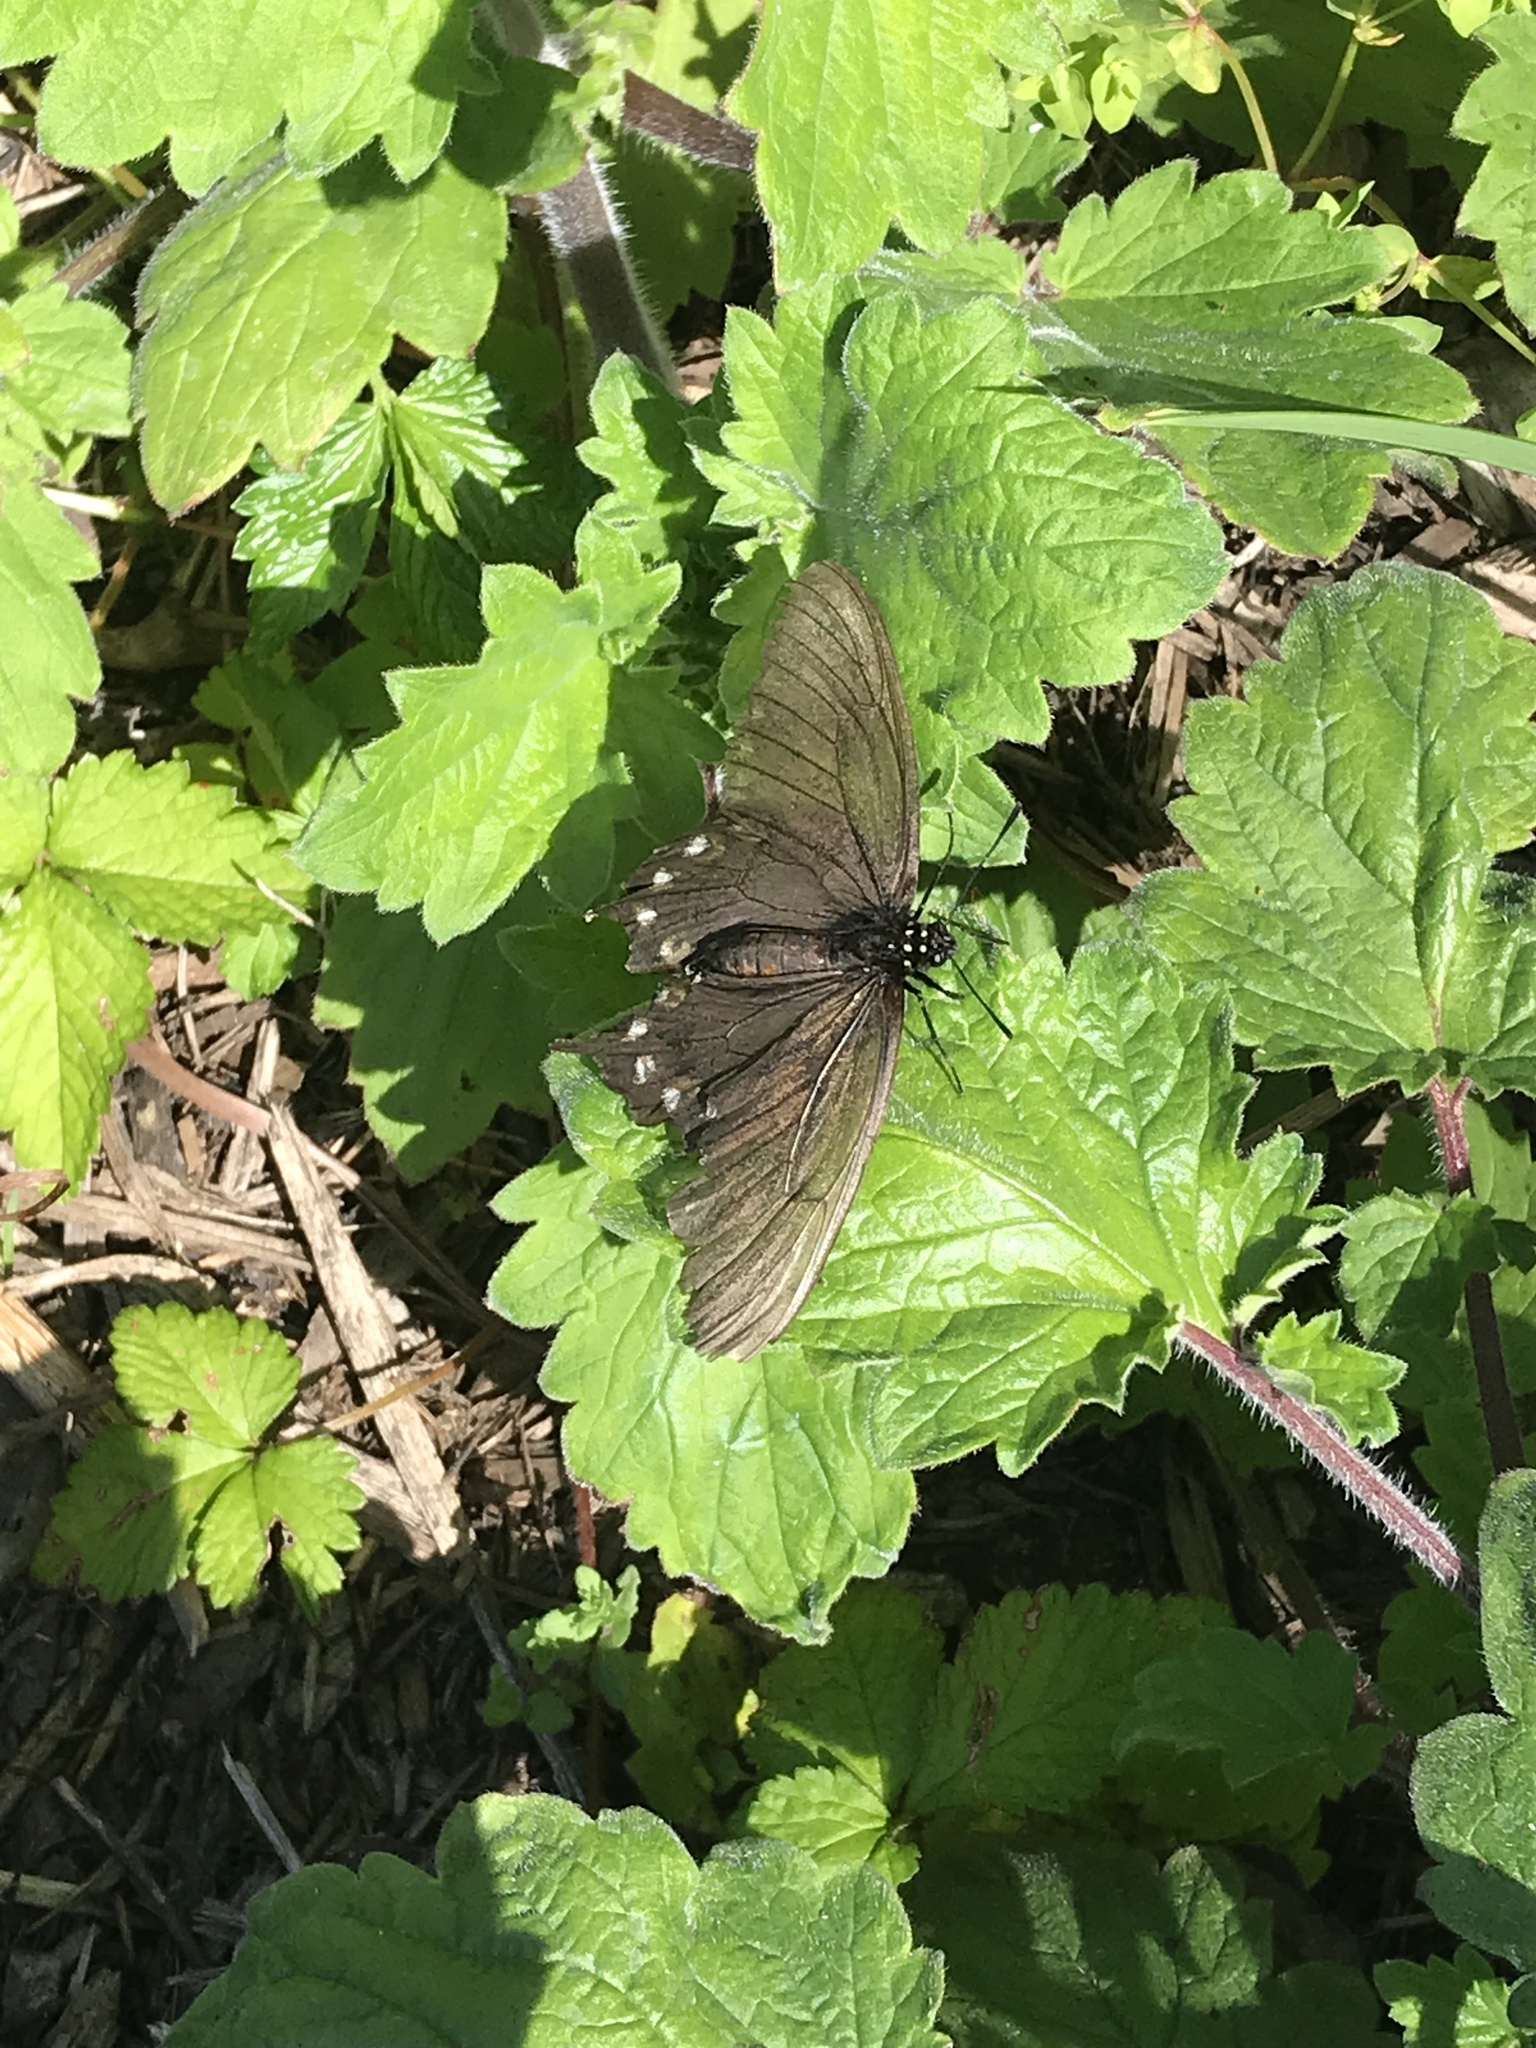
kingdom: Animalia
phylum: Arthropoda
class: Insecta
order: Lepidoptera
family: Papilionidae
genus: Battus
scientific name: Battus philenor
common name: Pipevine swallowtail
